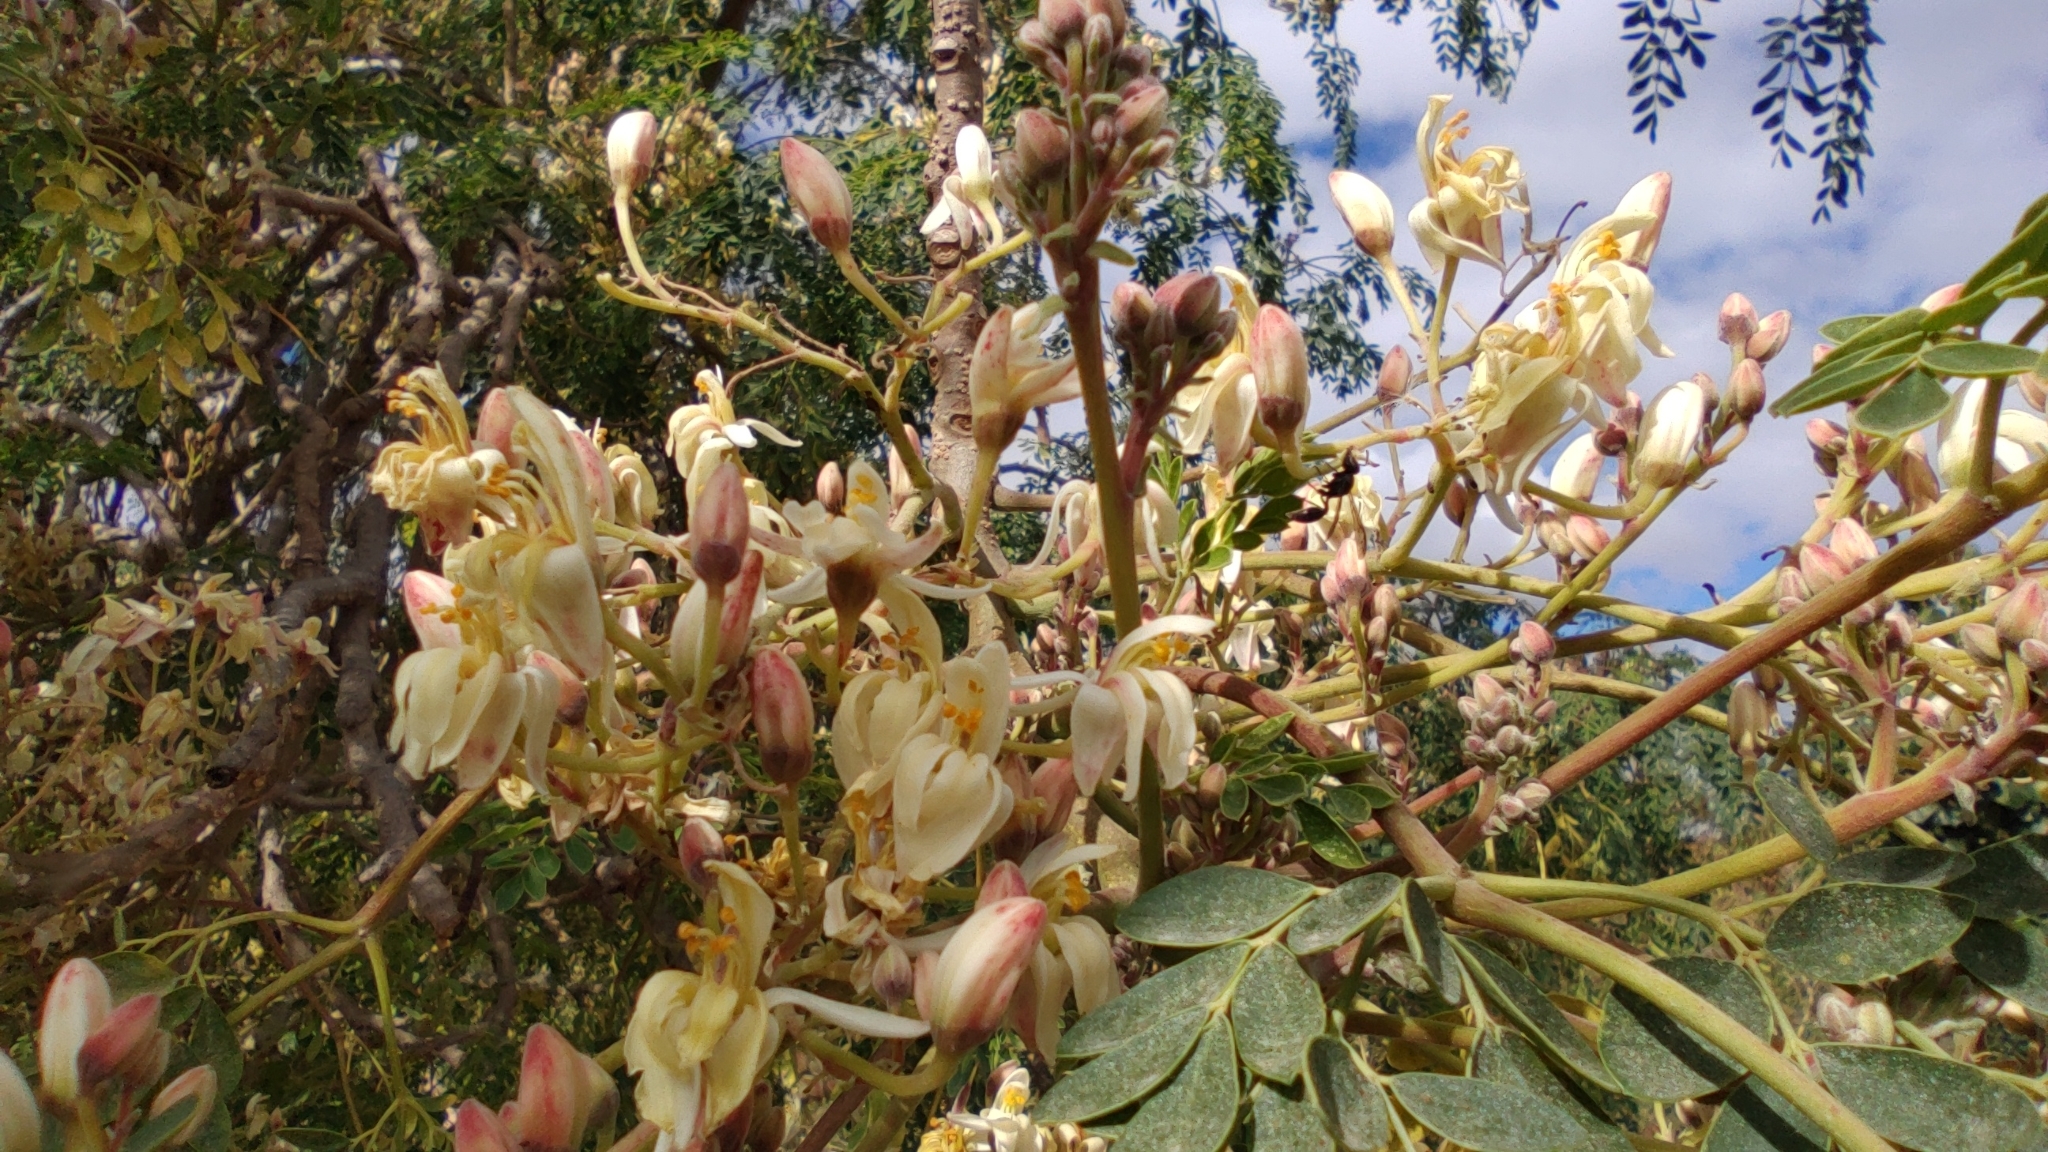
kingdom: Plantae
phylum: Tracheophyta
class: Magnoliopsida
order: Brassicales
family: Moringaceae
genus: Moringa
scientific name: Moringa oleifera
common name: Horseradish-tree
